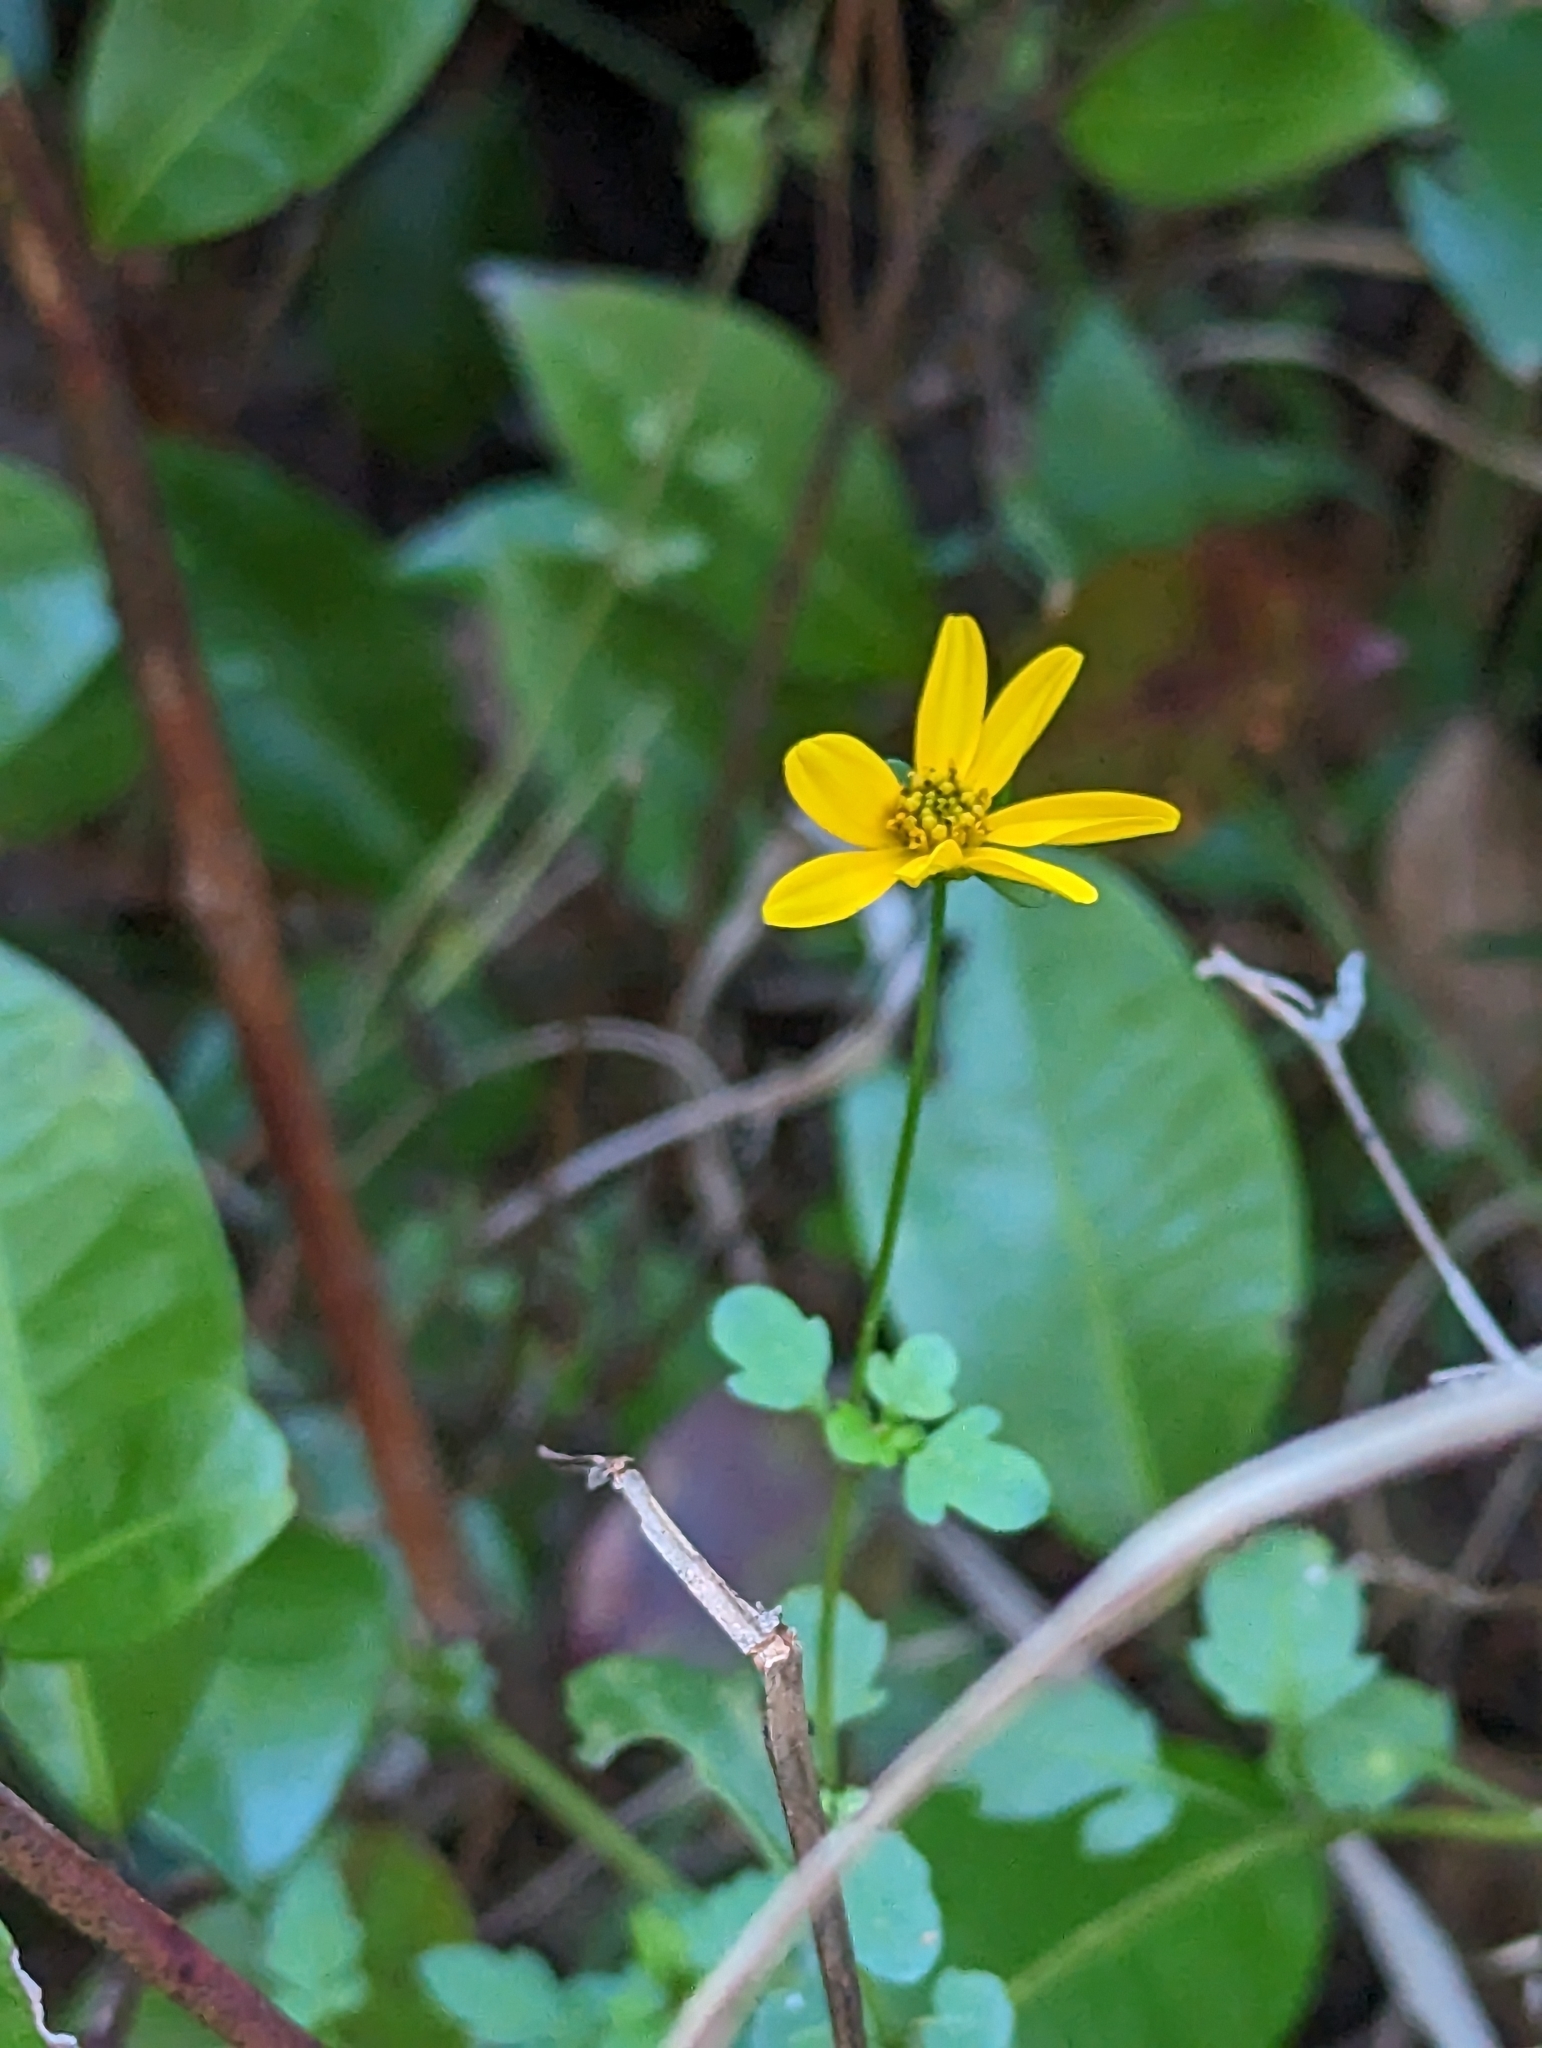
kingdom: Plantae
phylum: Tracheophyta
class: Magnoliopsida
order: Asterales
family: Asteraceae
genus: Bidens
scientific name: Bidens mitis
